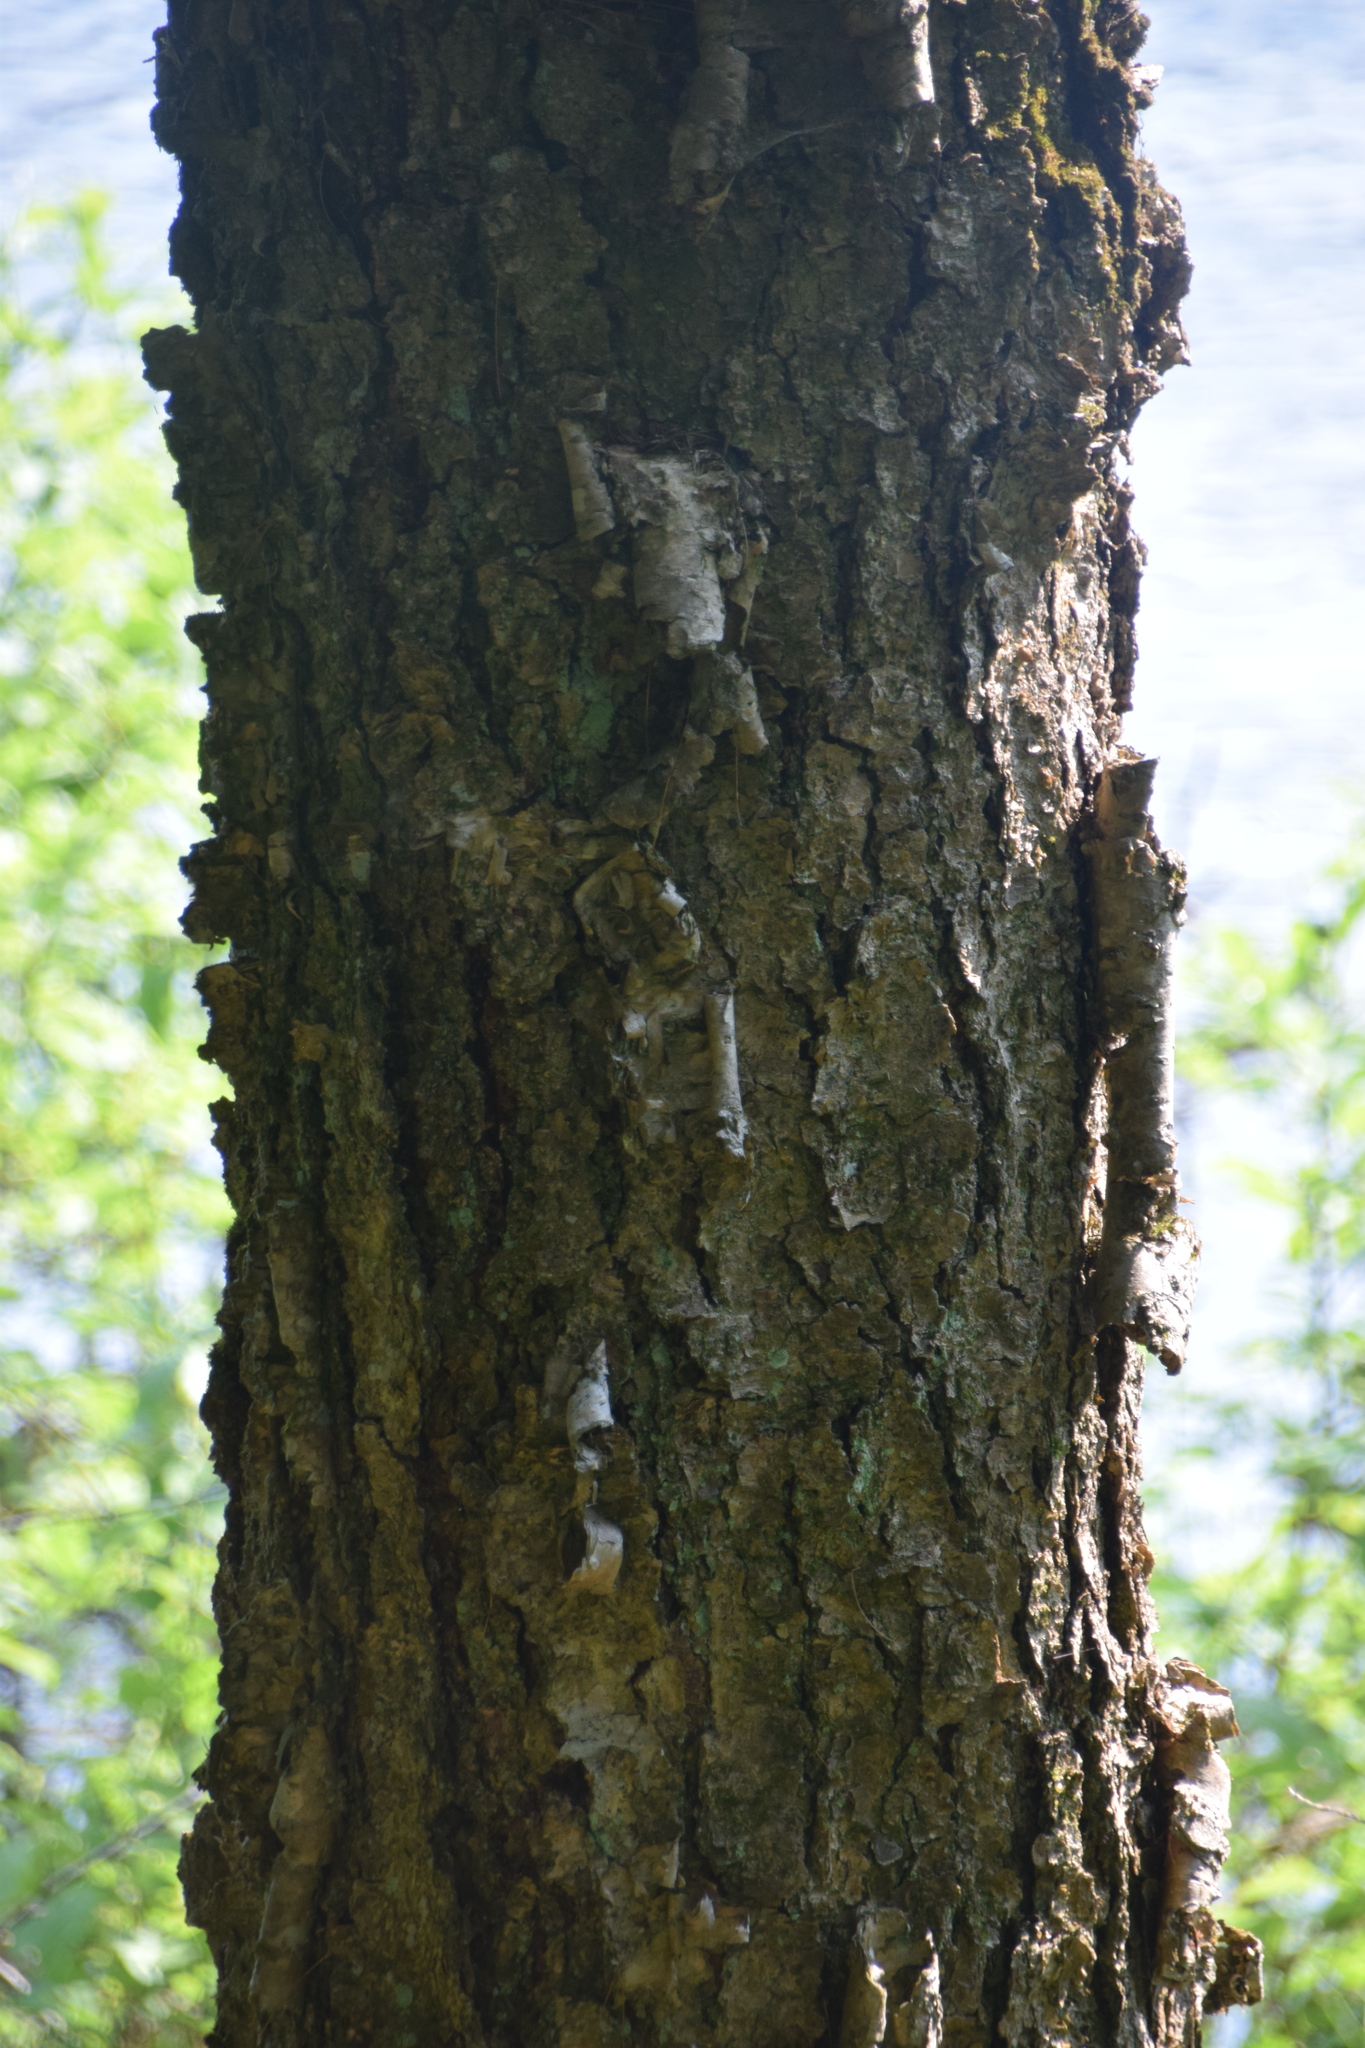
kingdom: Plantae
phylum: Tracheophyta
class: Magnoliopsida
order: Fagales
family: Betulaceae
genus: Betula
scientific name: Betula alleghaniensis
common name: Yellow birch
